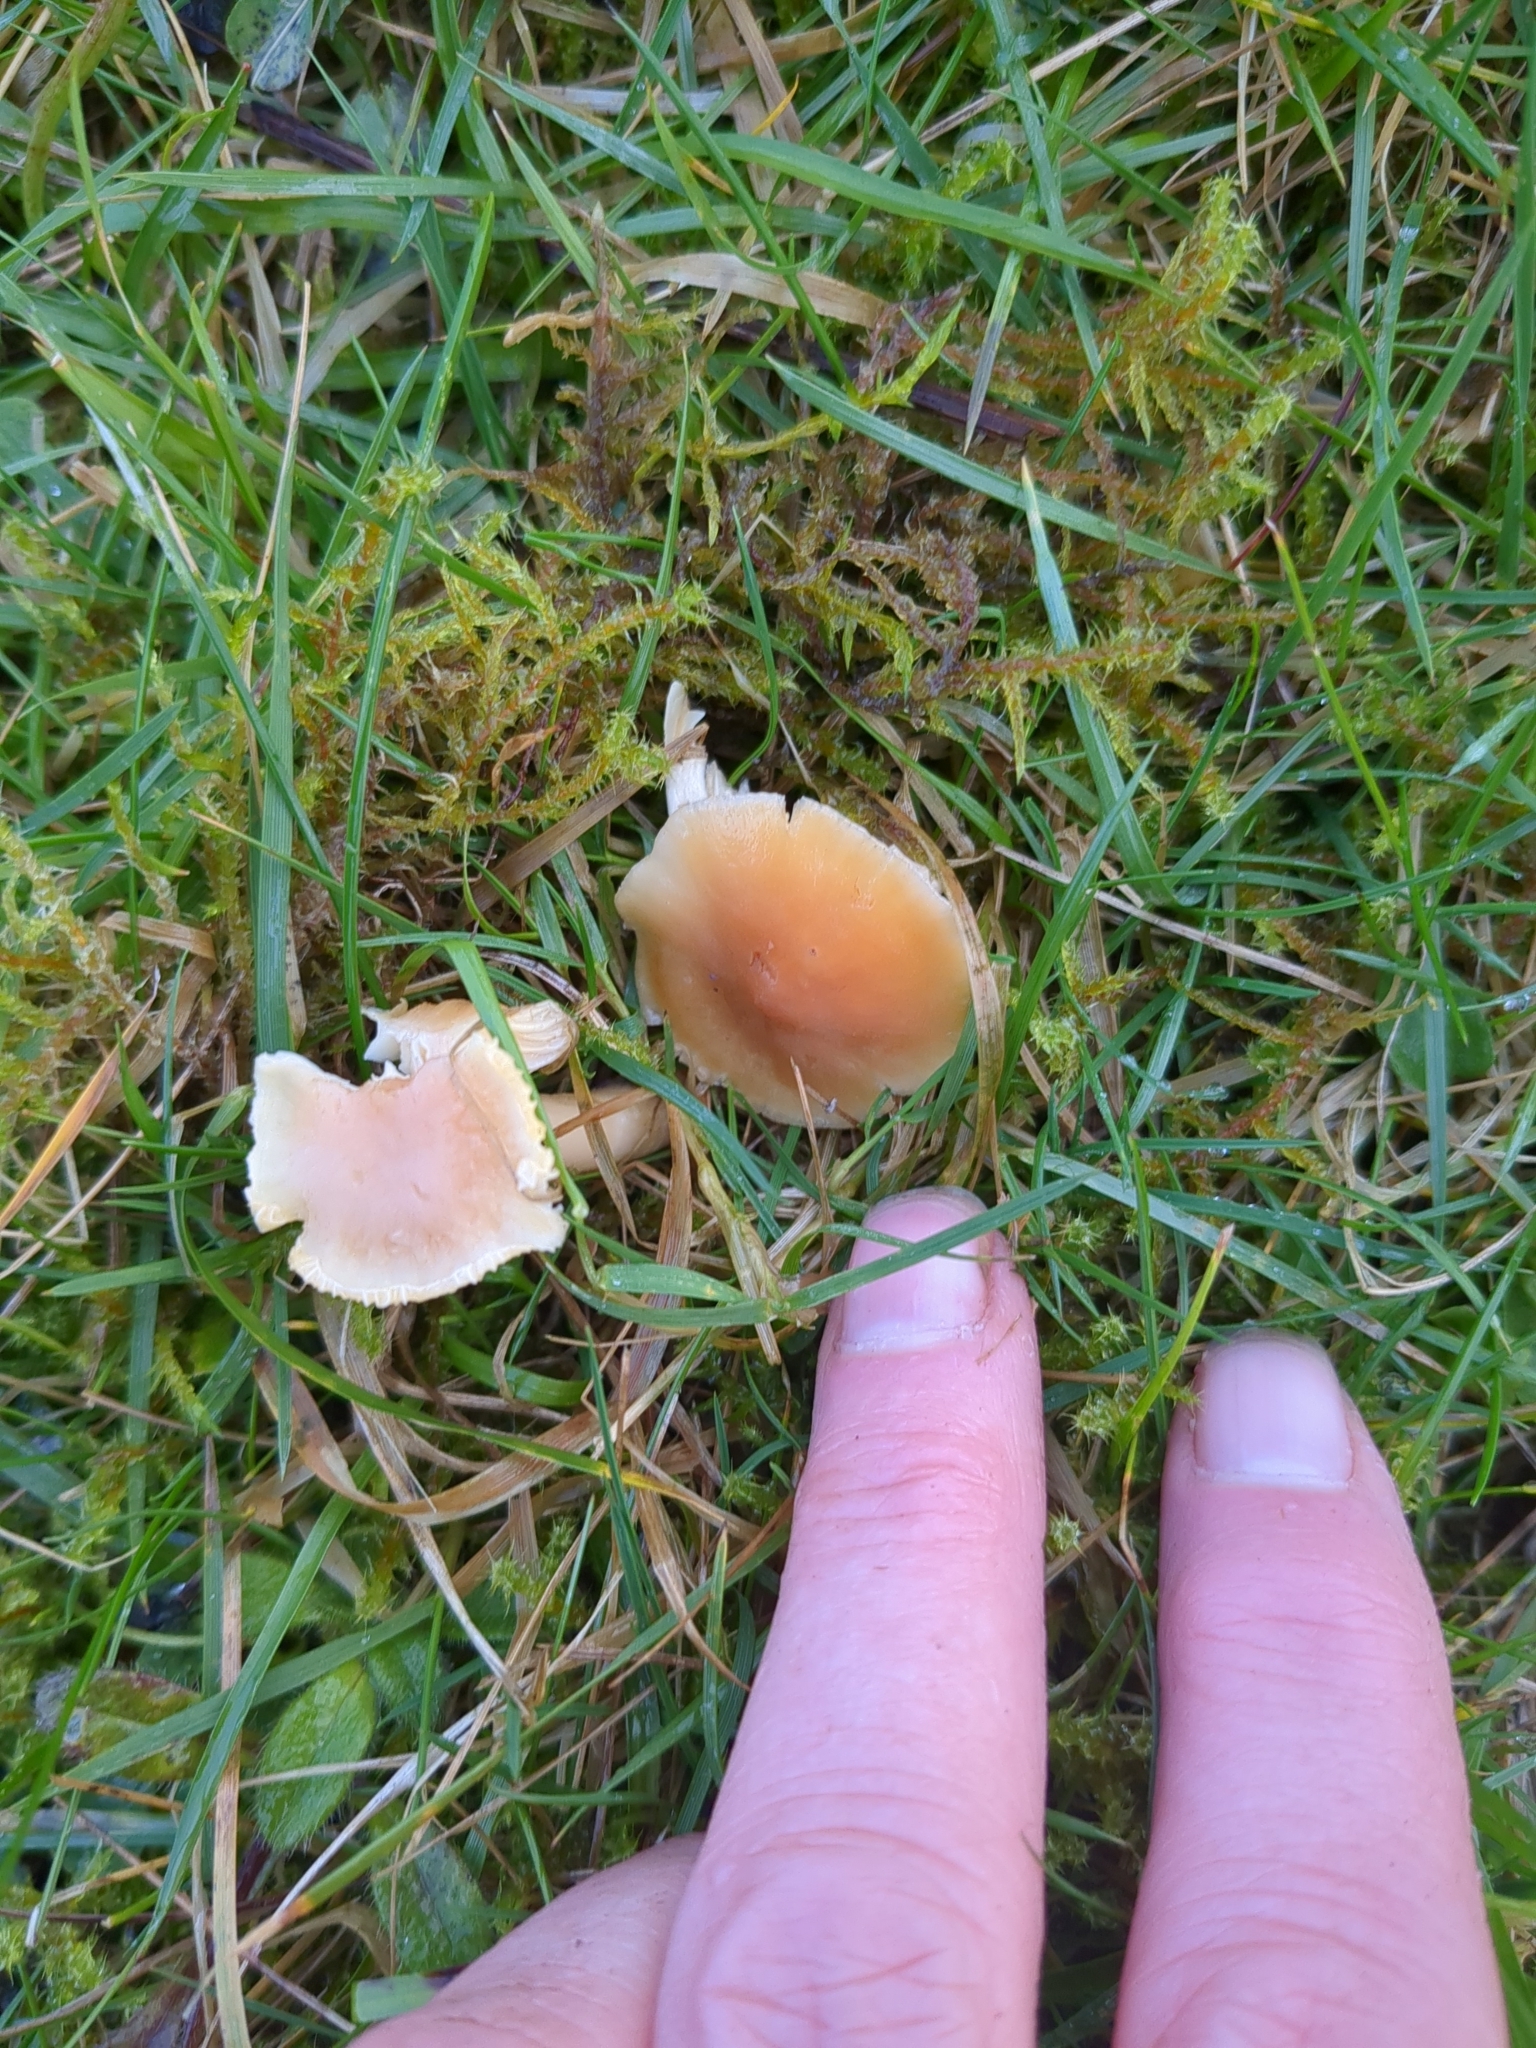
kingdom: Fungi
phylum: Basidiomycota
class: Agaricomycetes
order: Agaricales
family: Hygrophoraceae
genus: Cuphophyllus
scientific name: Cuphophyllus pratensis
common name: Meadow waxcap
